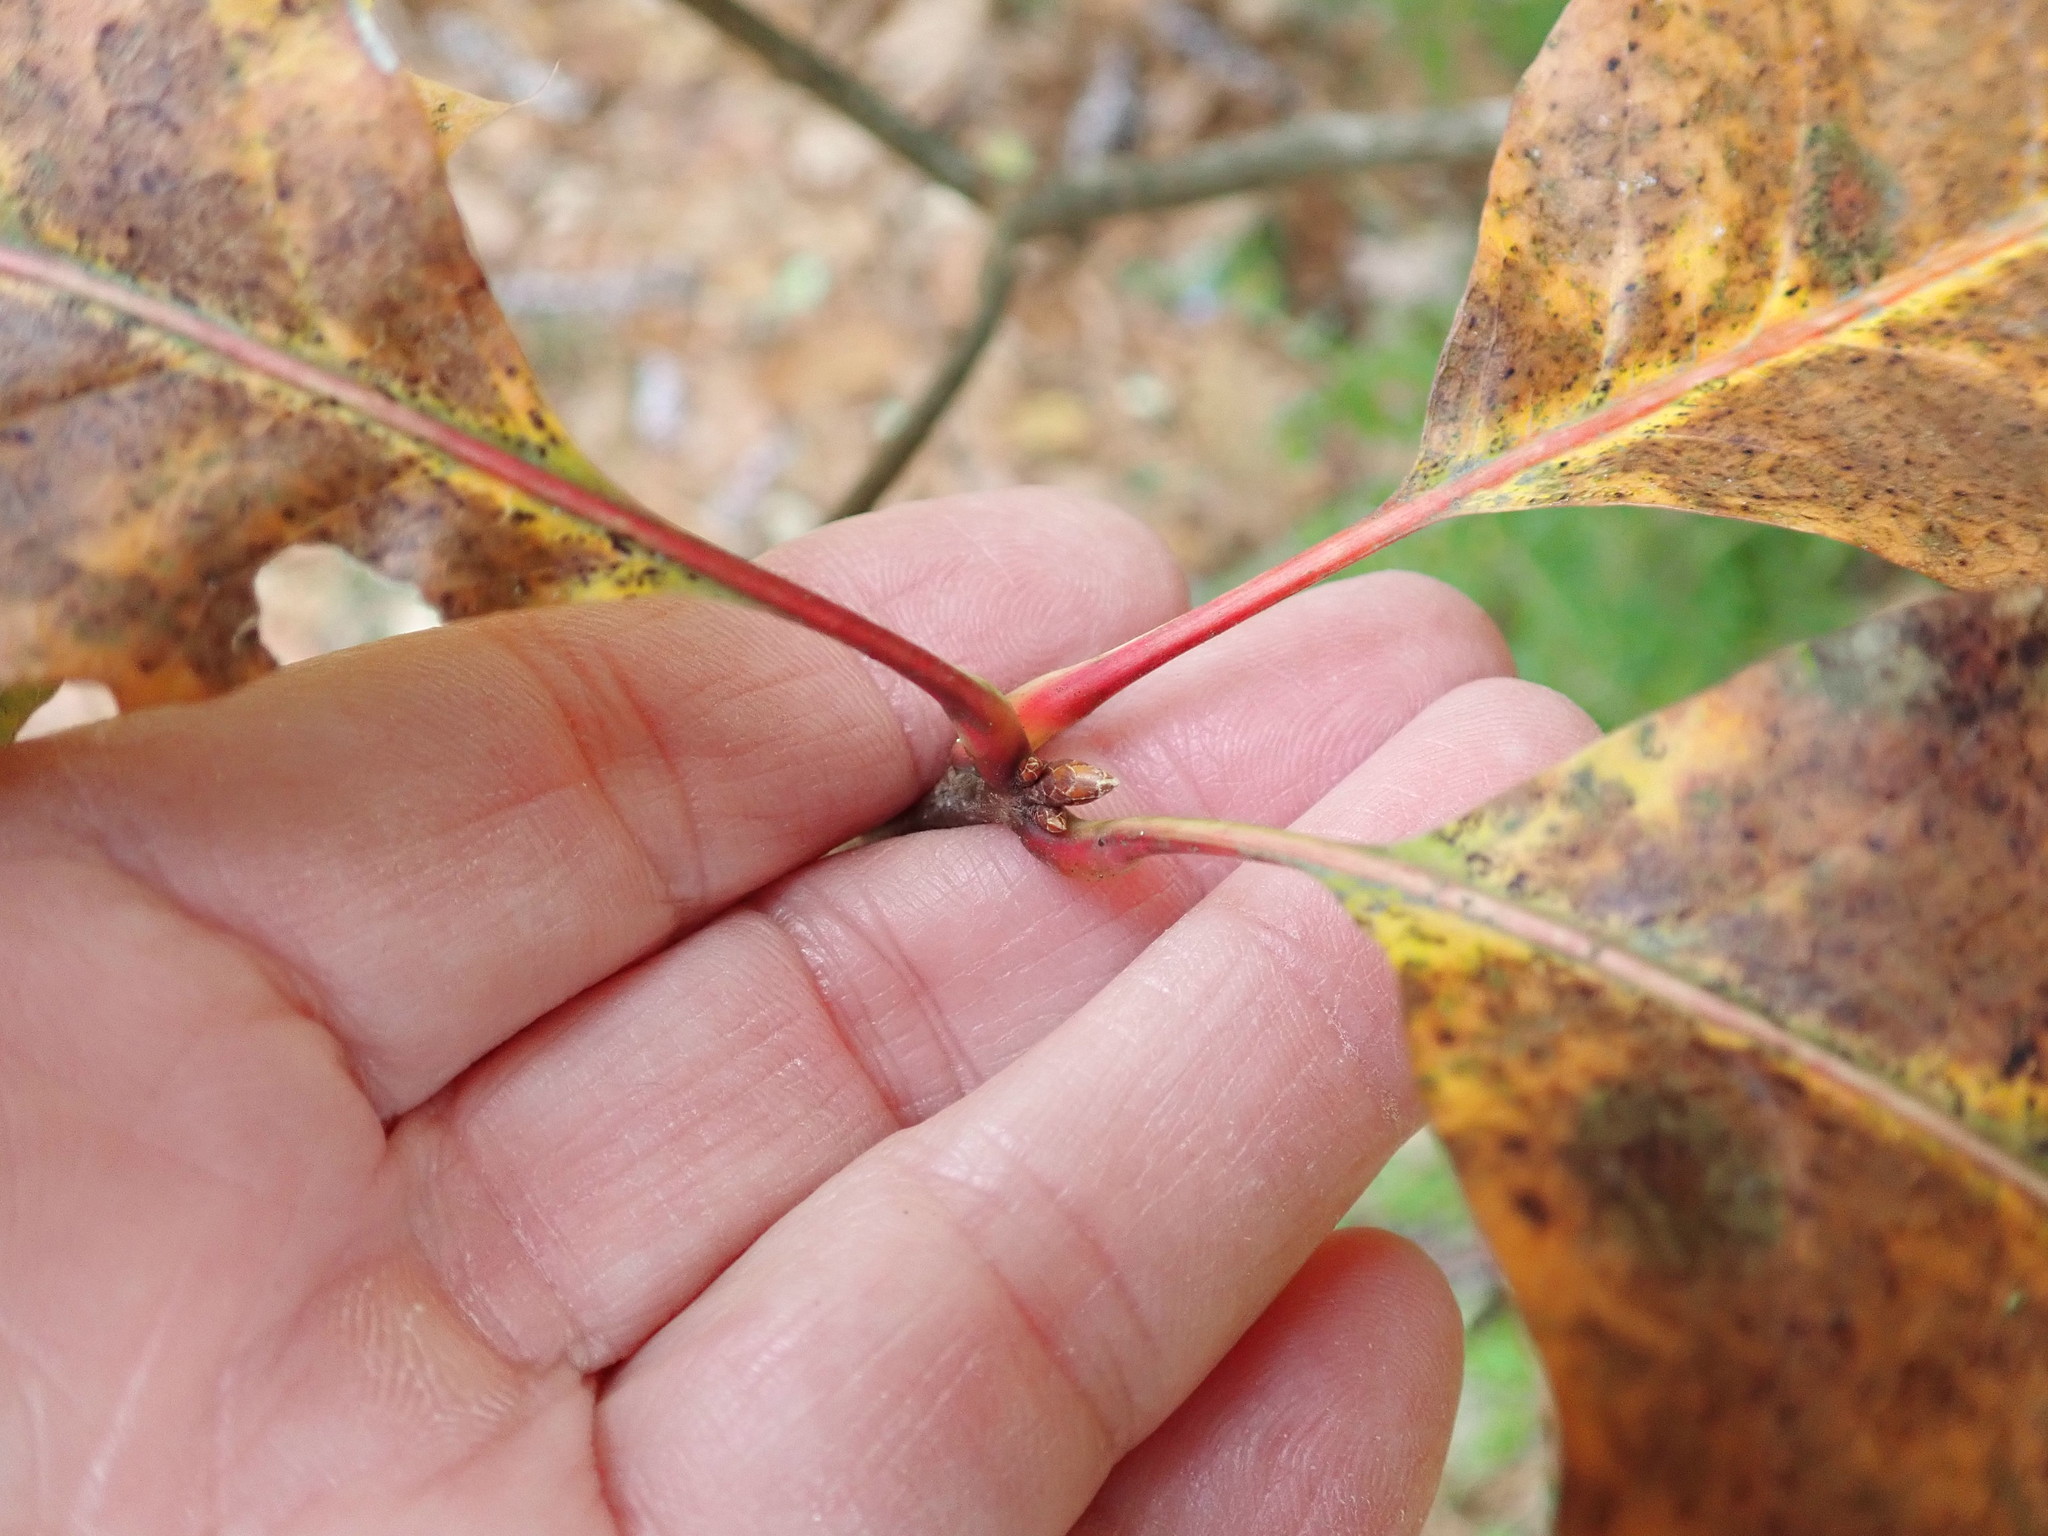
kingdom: Plantae
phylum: Tracheophyta
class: Magnoliopsida
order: Fagales
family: Fagaceae
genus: Quercus
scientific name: Quercus rubra
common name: Red oak
